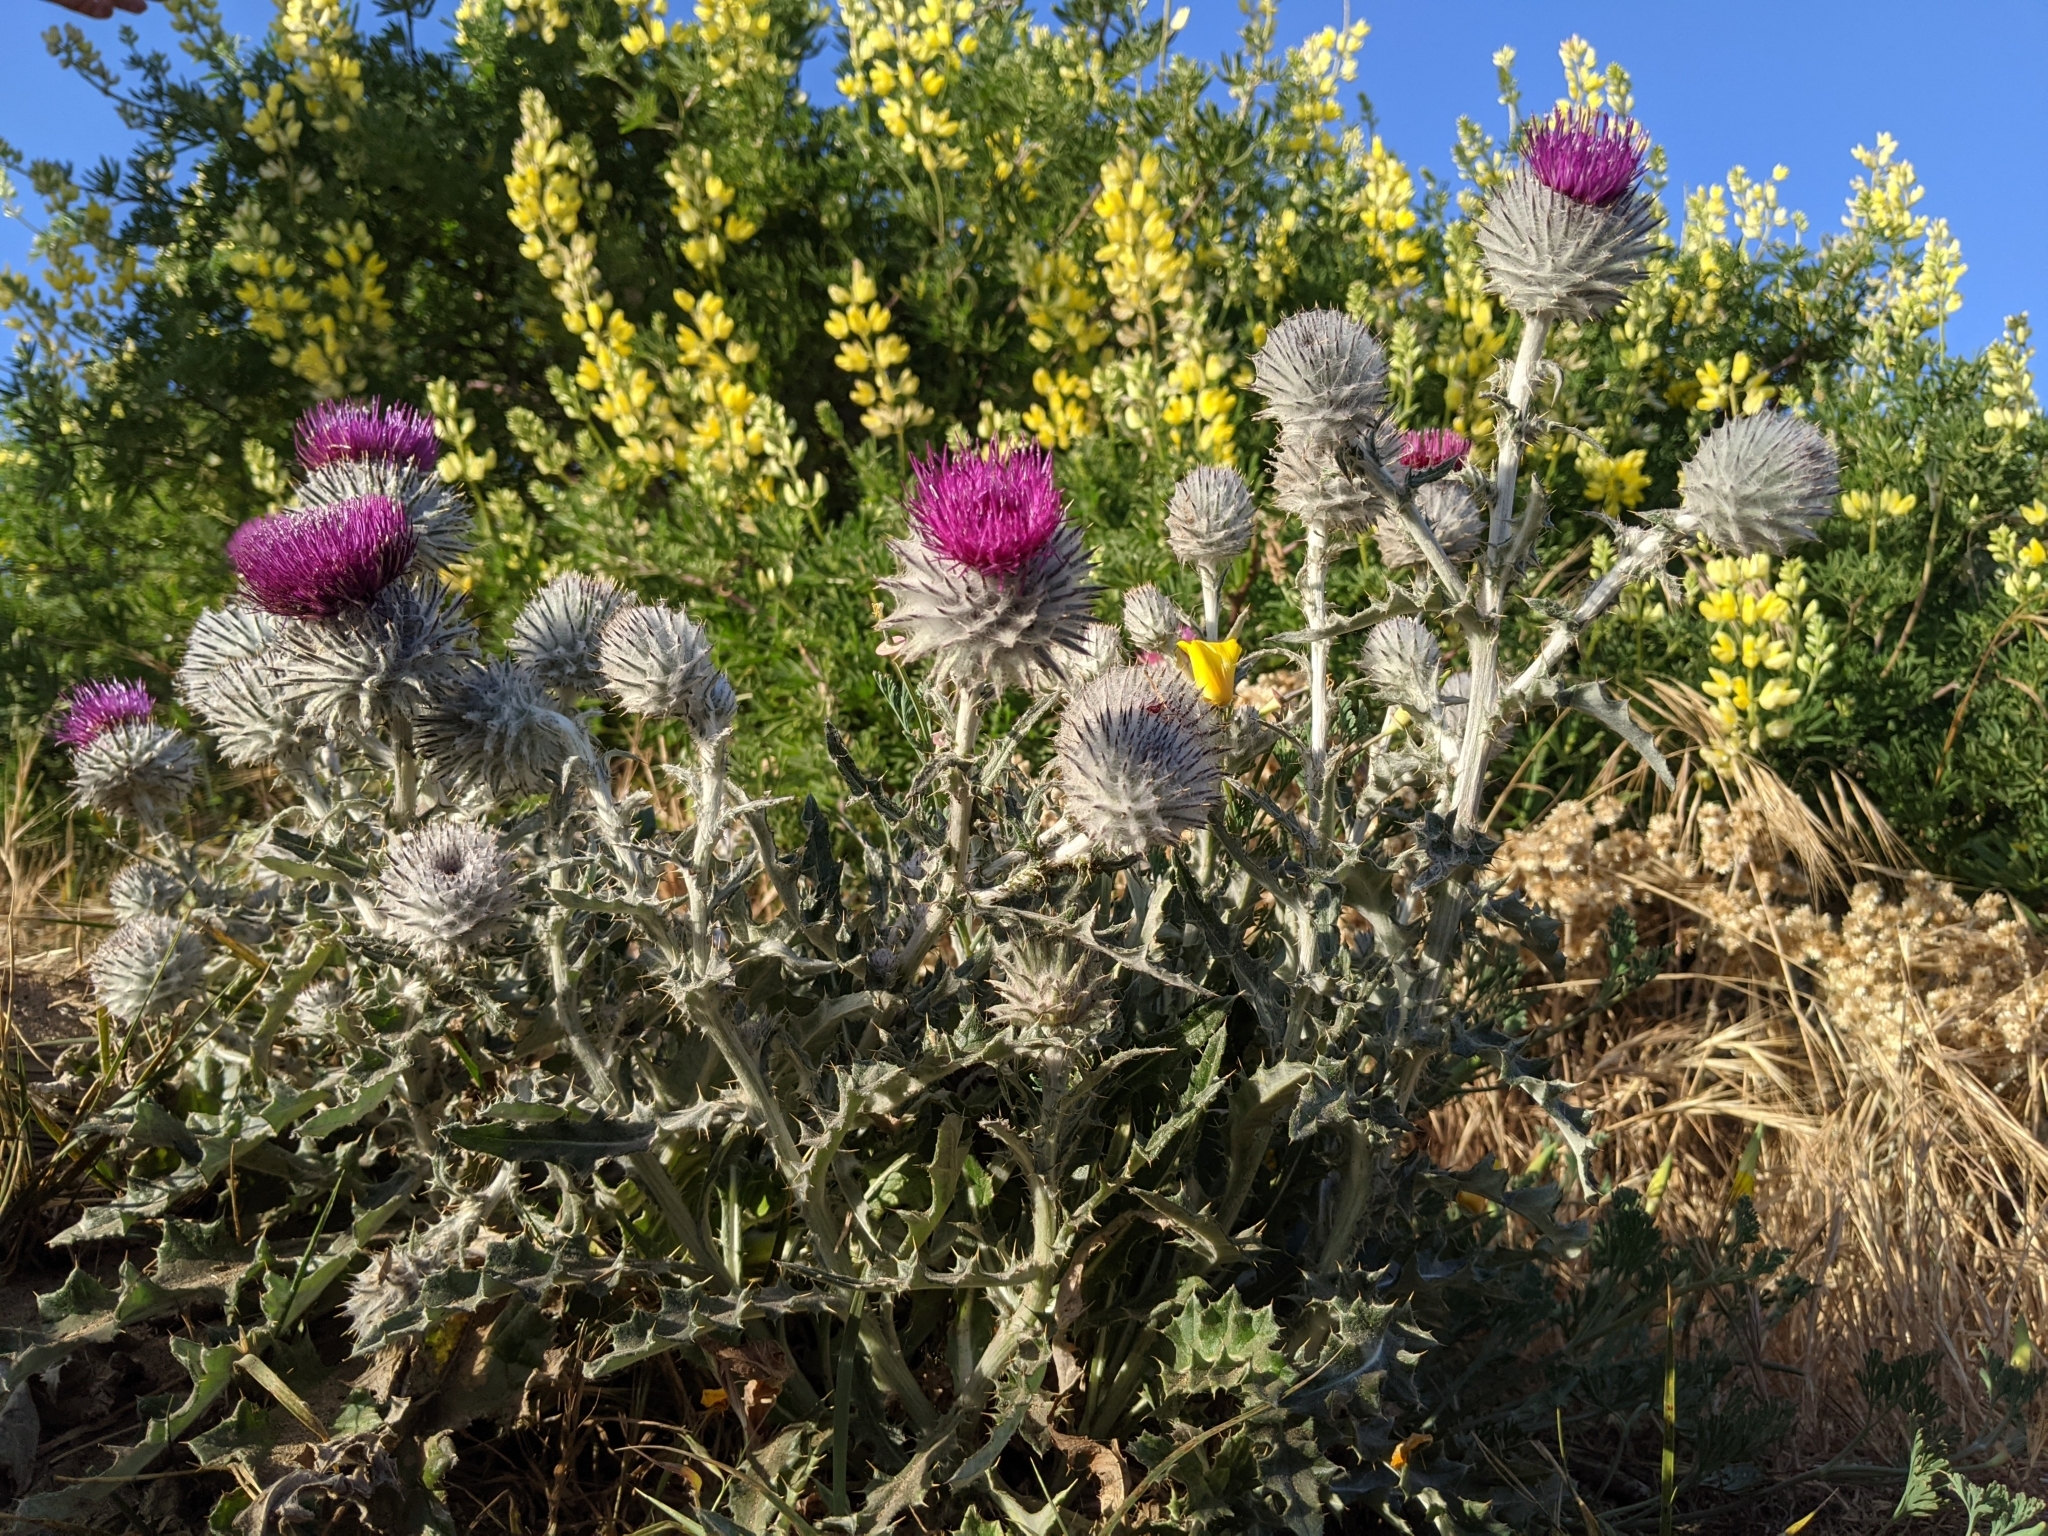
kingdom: Plantae
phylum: Tracheophyta
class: Magnoliopsida
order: Asterales
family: Asteraceae
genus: Cirsium
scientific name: Cirsium occidentale
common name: Western thistle
